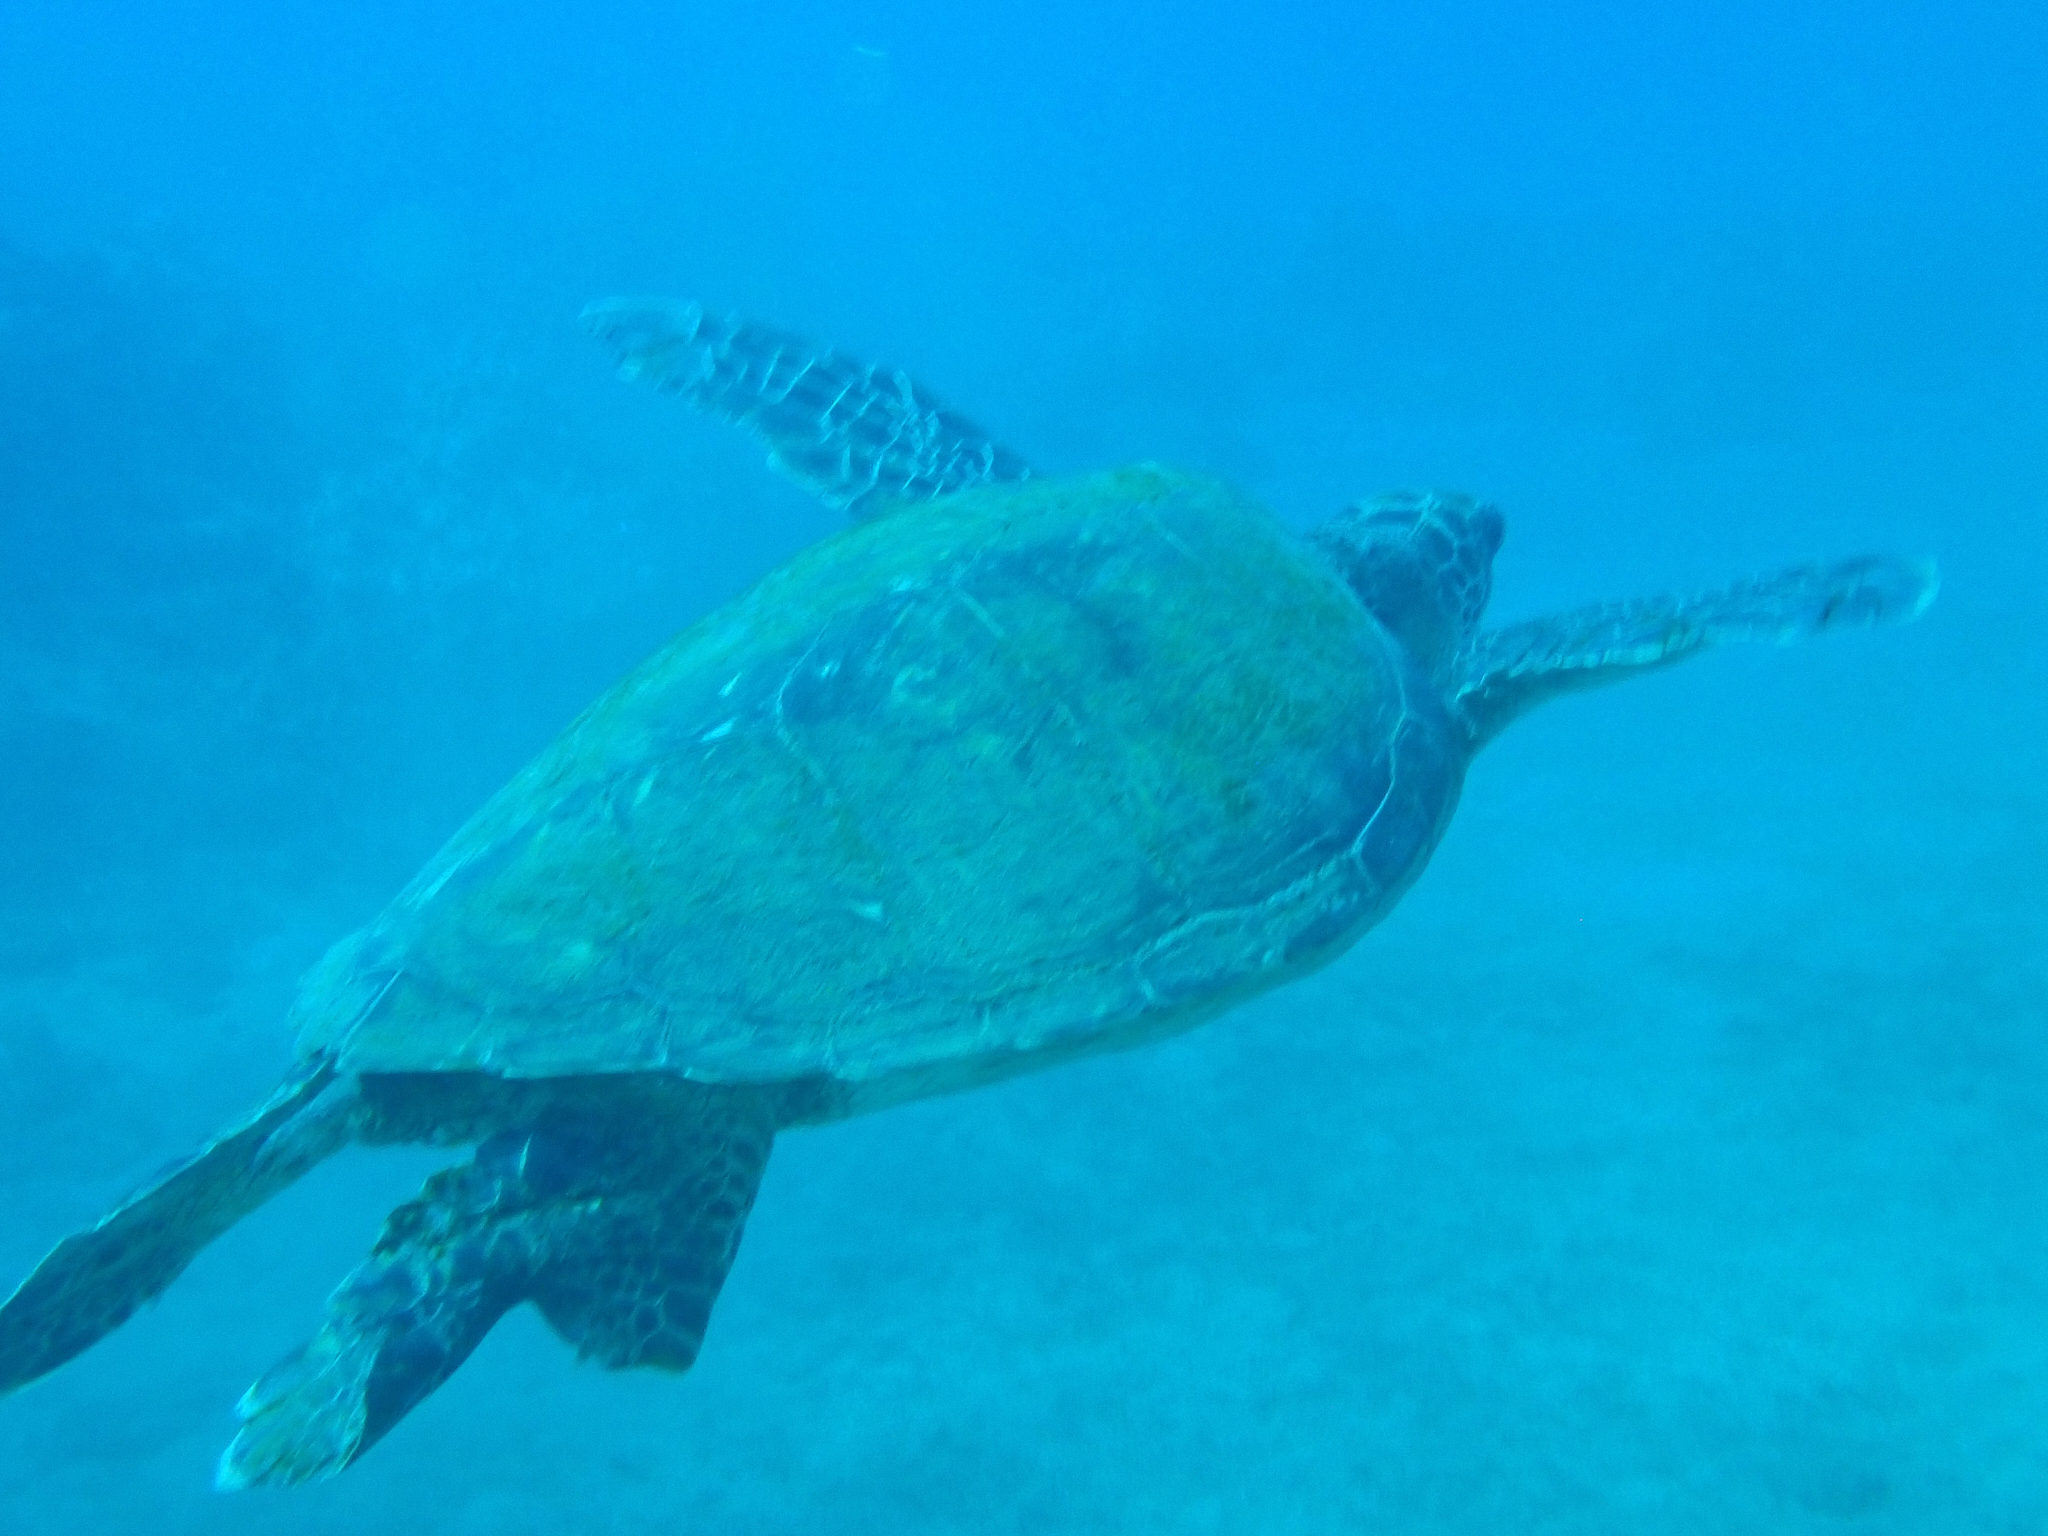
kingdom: Animalia
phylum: Chordata
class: Testudines
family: Cheloniidae
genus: Chelonia
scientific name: Chelonia mydas
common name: Green turtle
